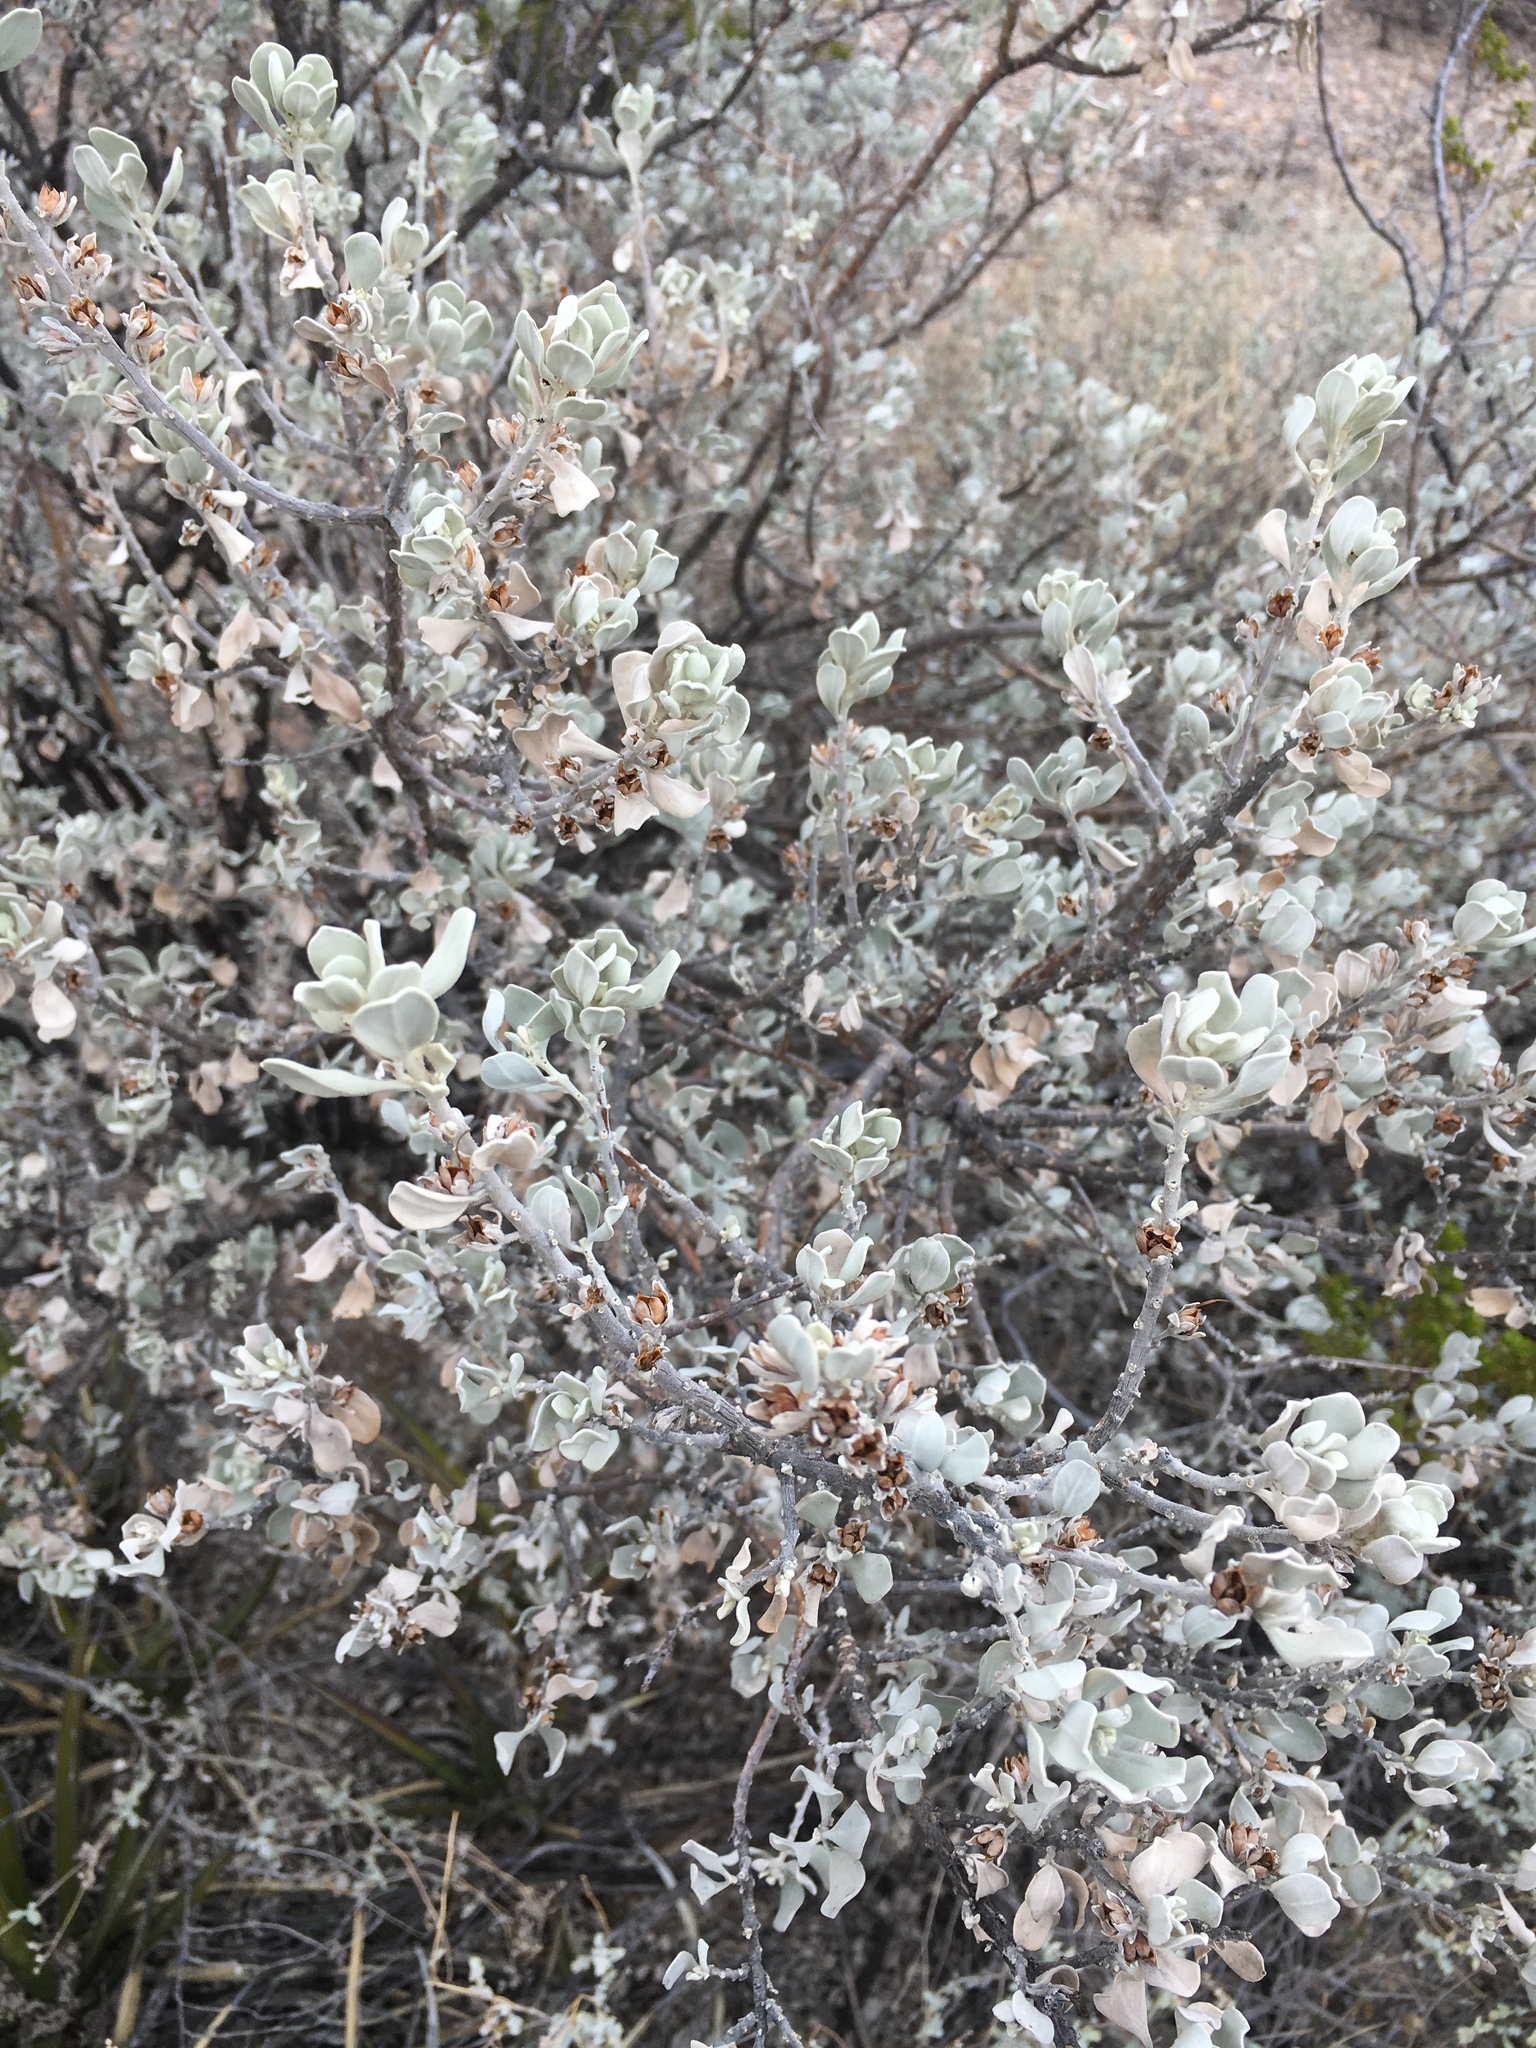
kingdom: Plantae
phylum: Tracheophyta
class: Magnoliopsida
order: Lamiales
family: Scrophulariaceae
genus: Leucophyllum
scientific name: Leucophyllum frutescens
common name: Texas silverleaf
